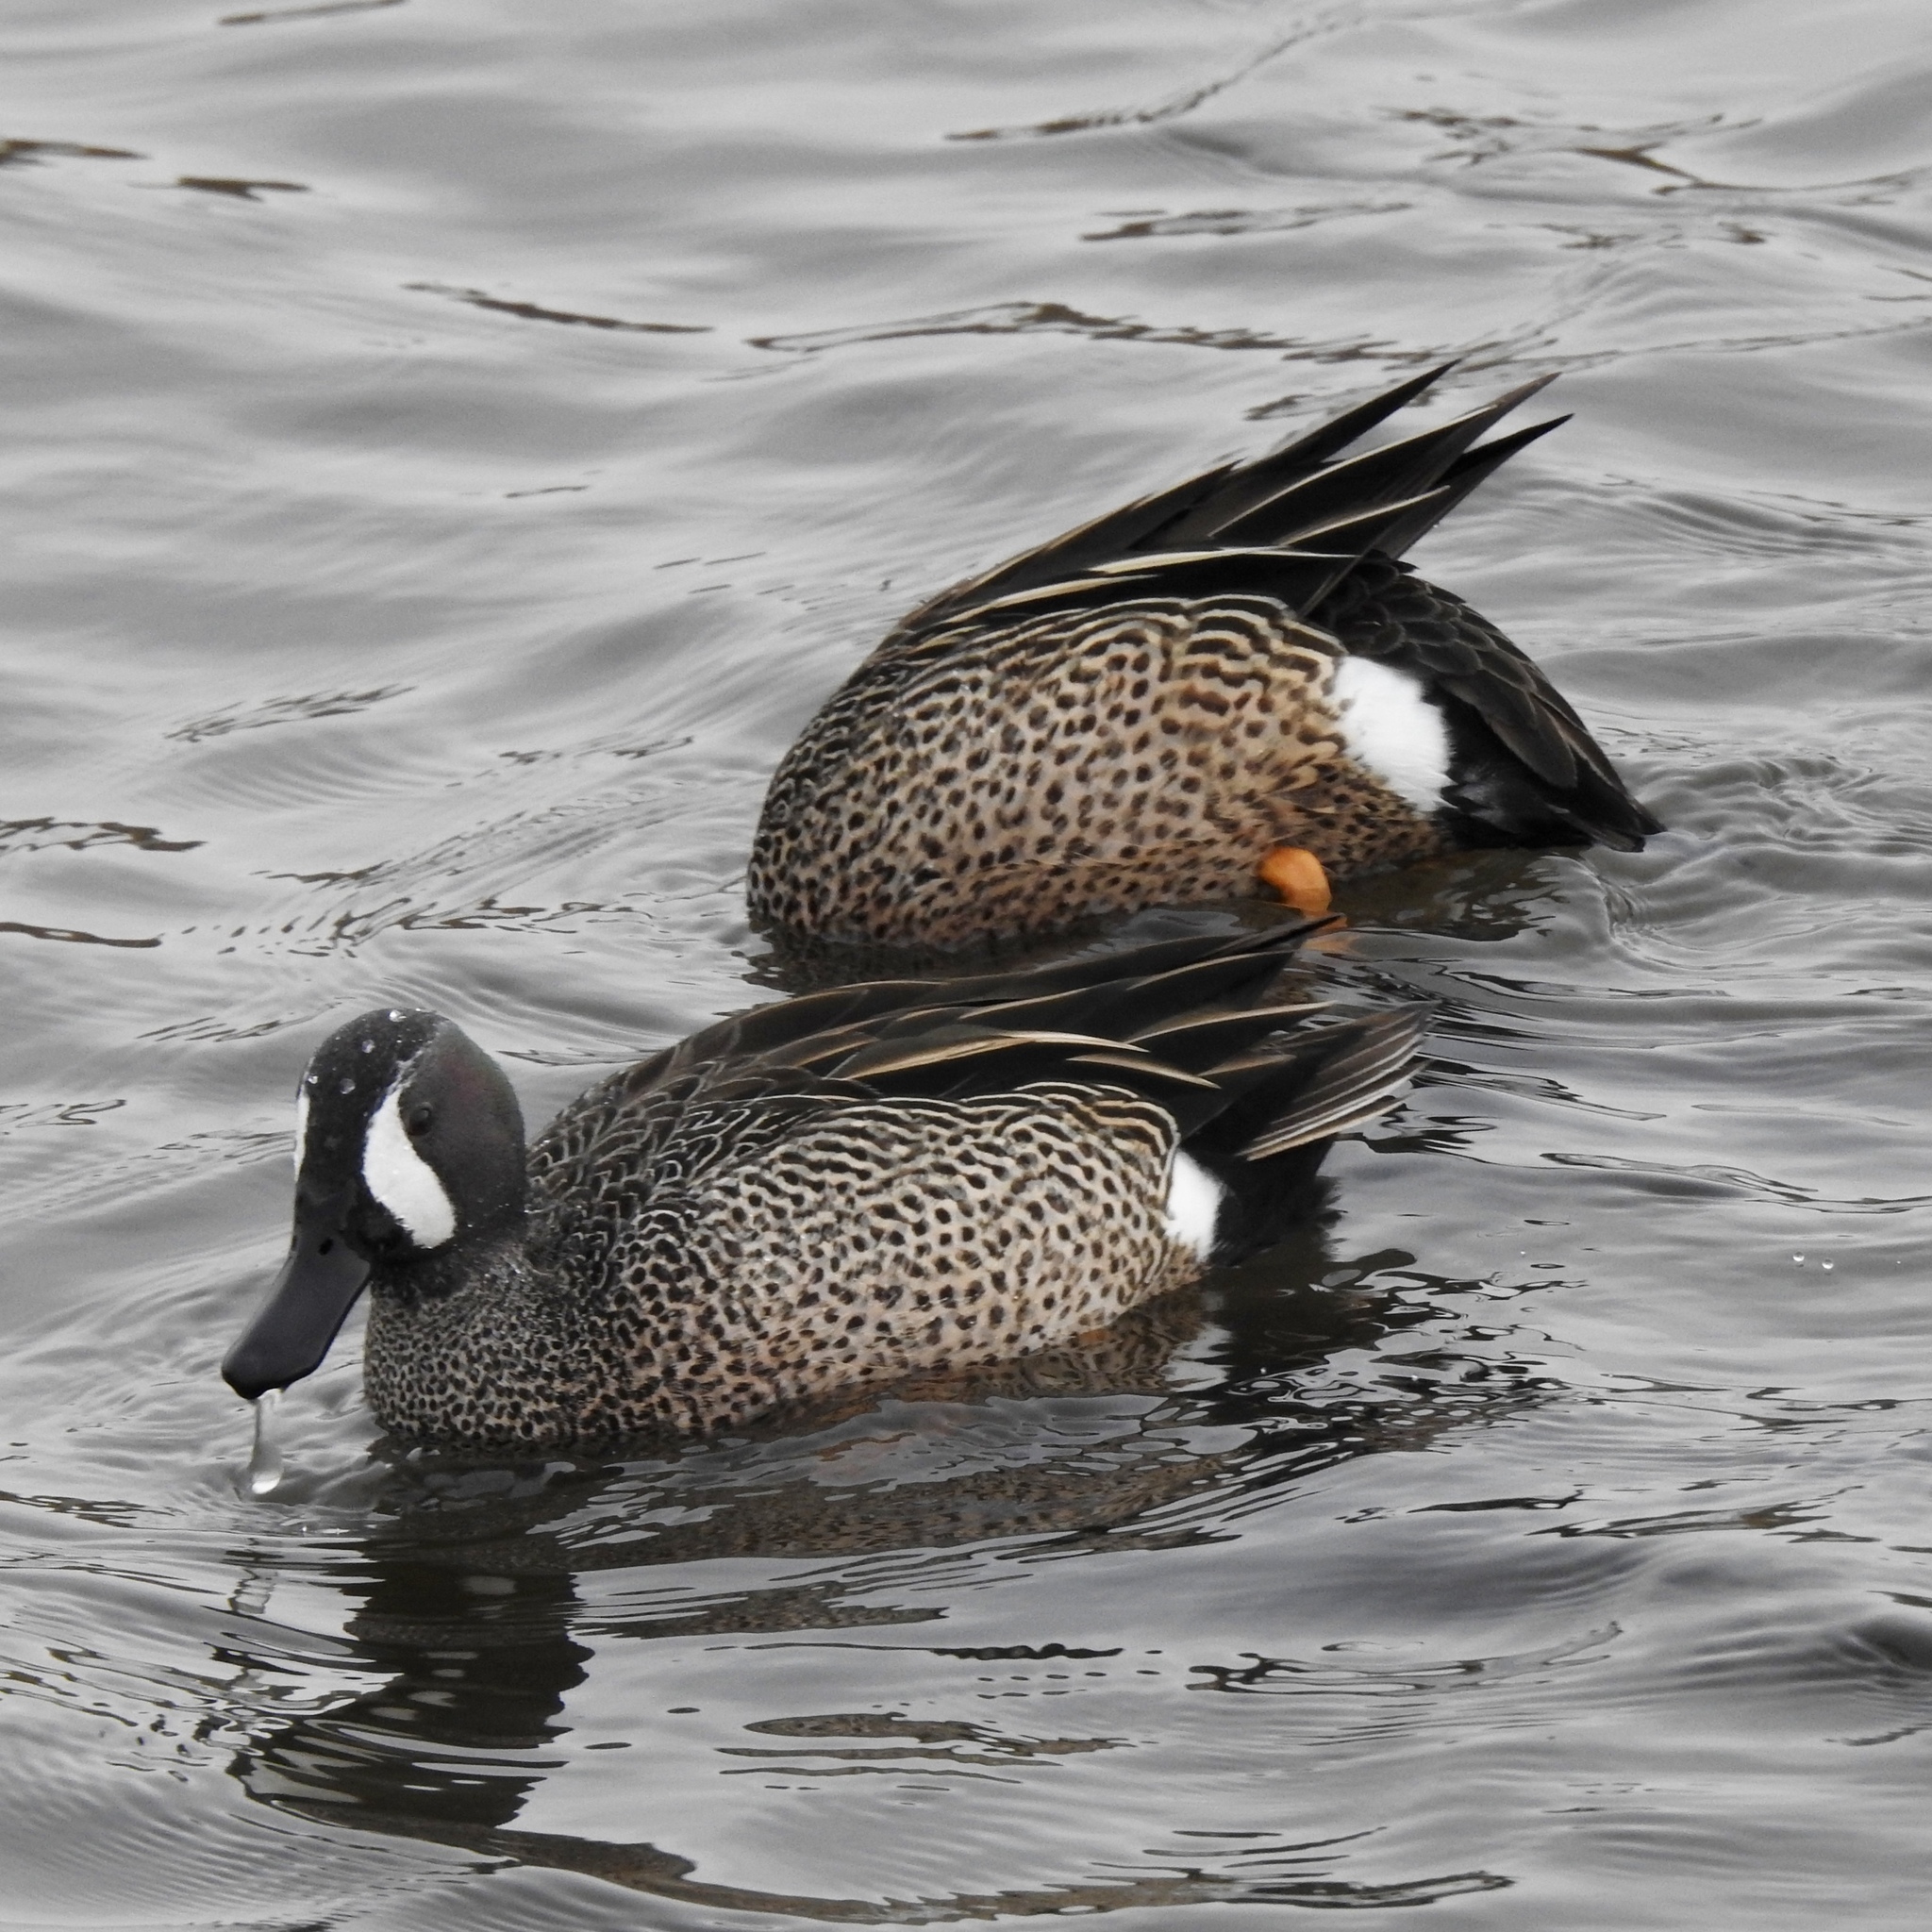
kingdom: Animalia
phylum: Chordata
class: Aves
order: Anseriformes
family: Anatidae
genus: Spatula
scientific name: Spatula discors
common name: Blue-winged teal
